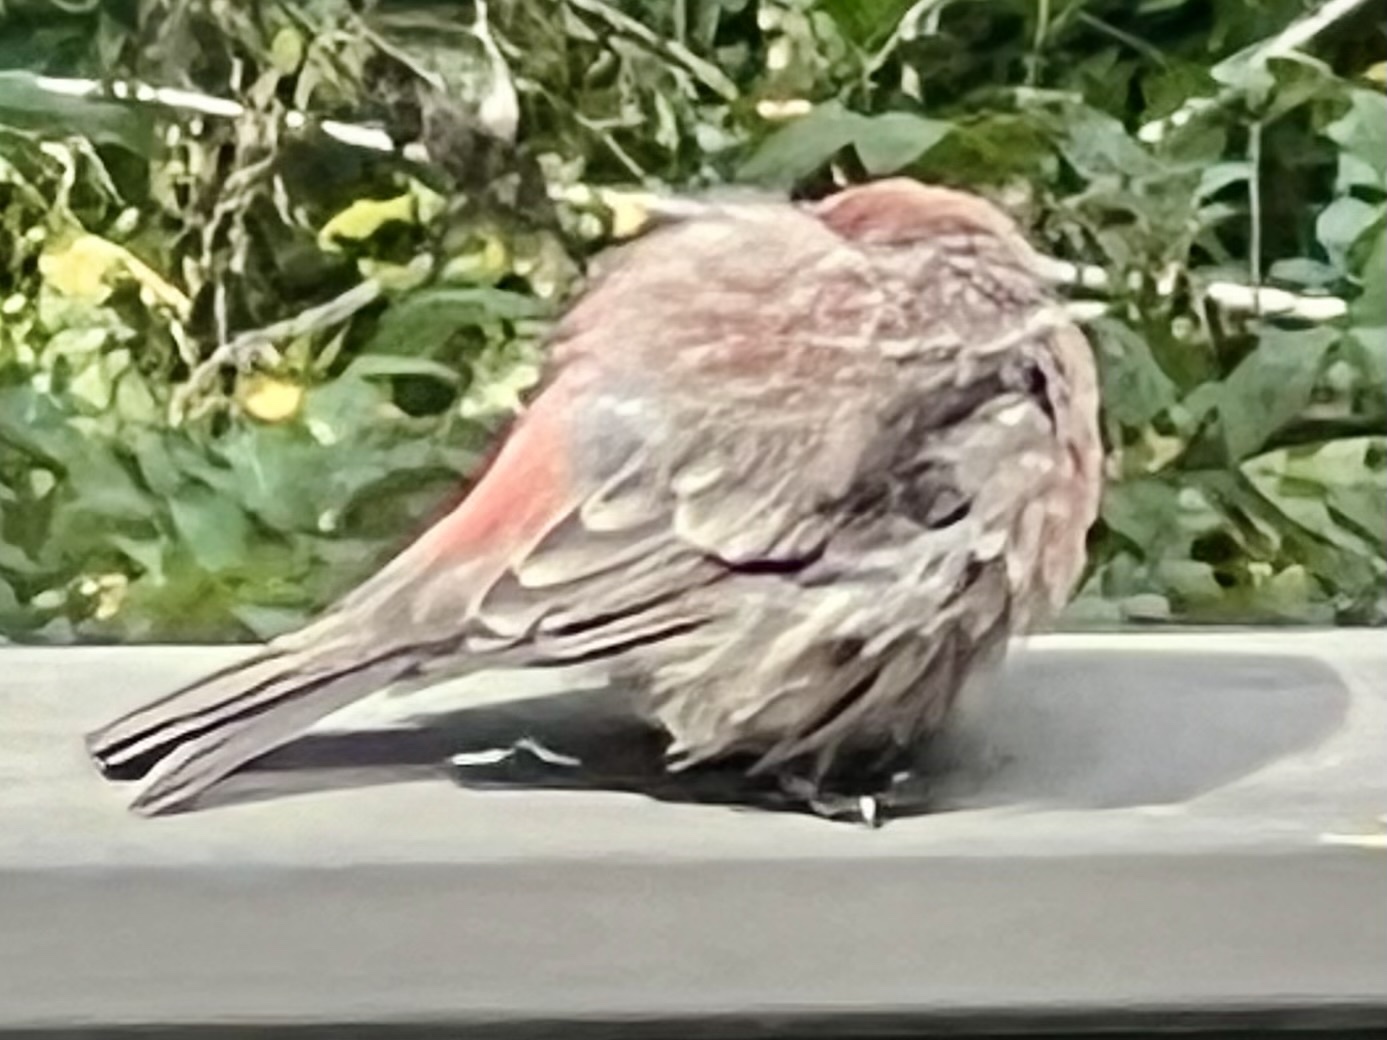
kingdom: Animalia
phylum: Chordata
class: Aves
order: Passeriformes
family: Fringillidae
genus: Haemorhous
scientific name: Haemorhous mexicanus
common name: House finch
